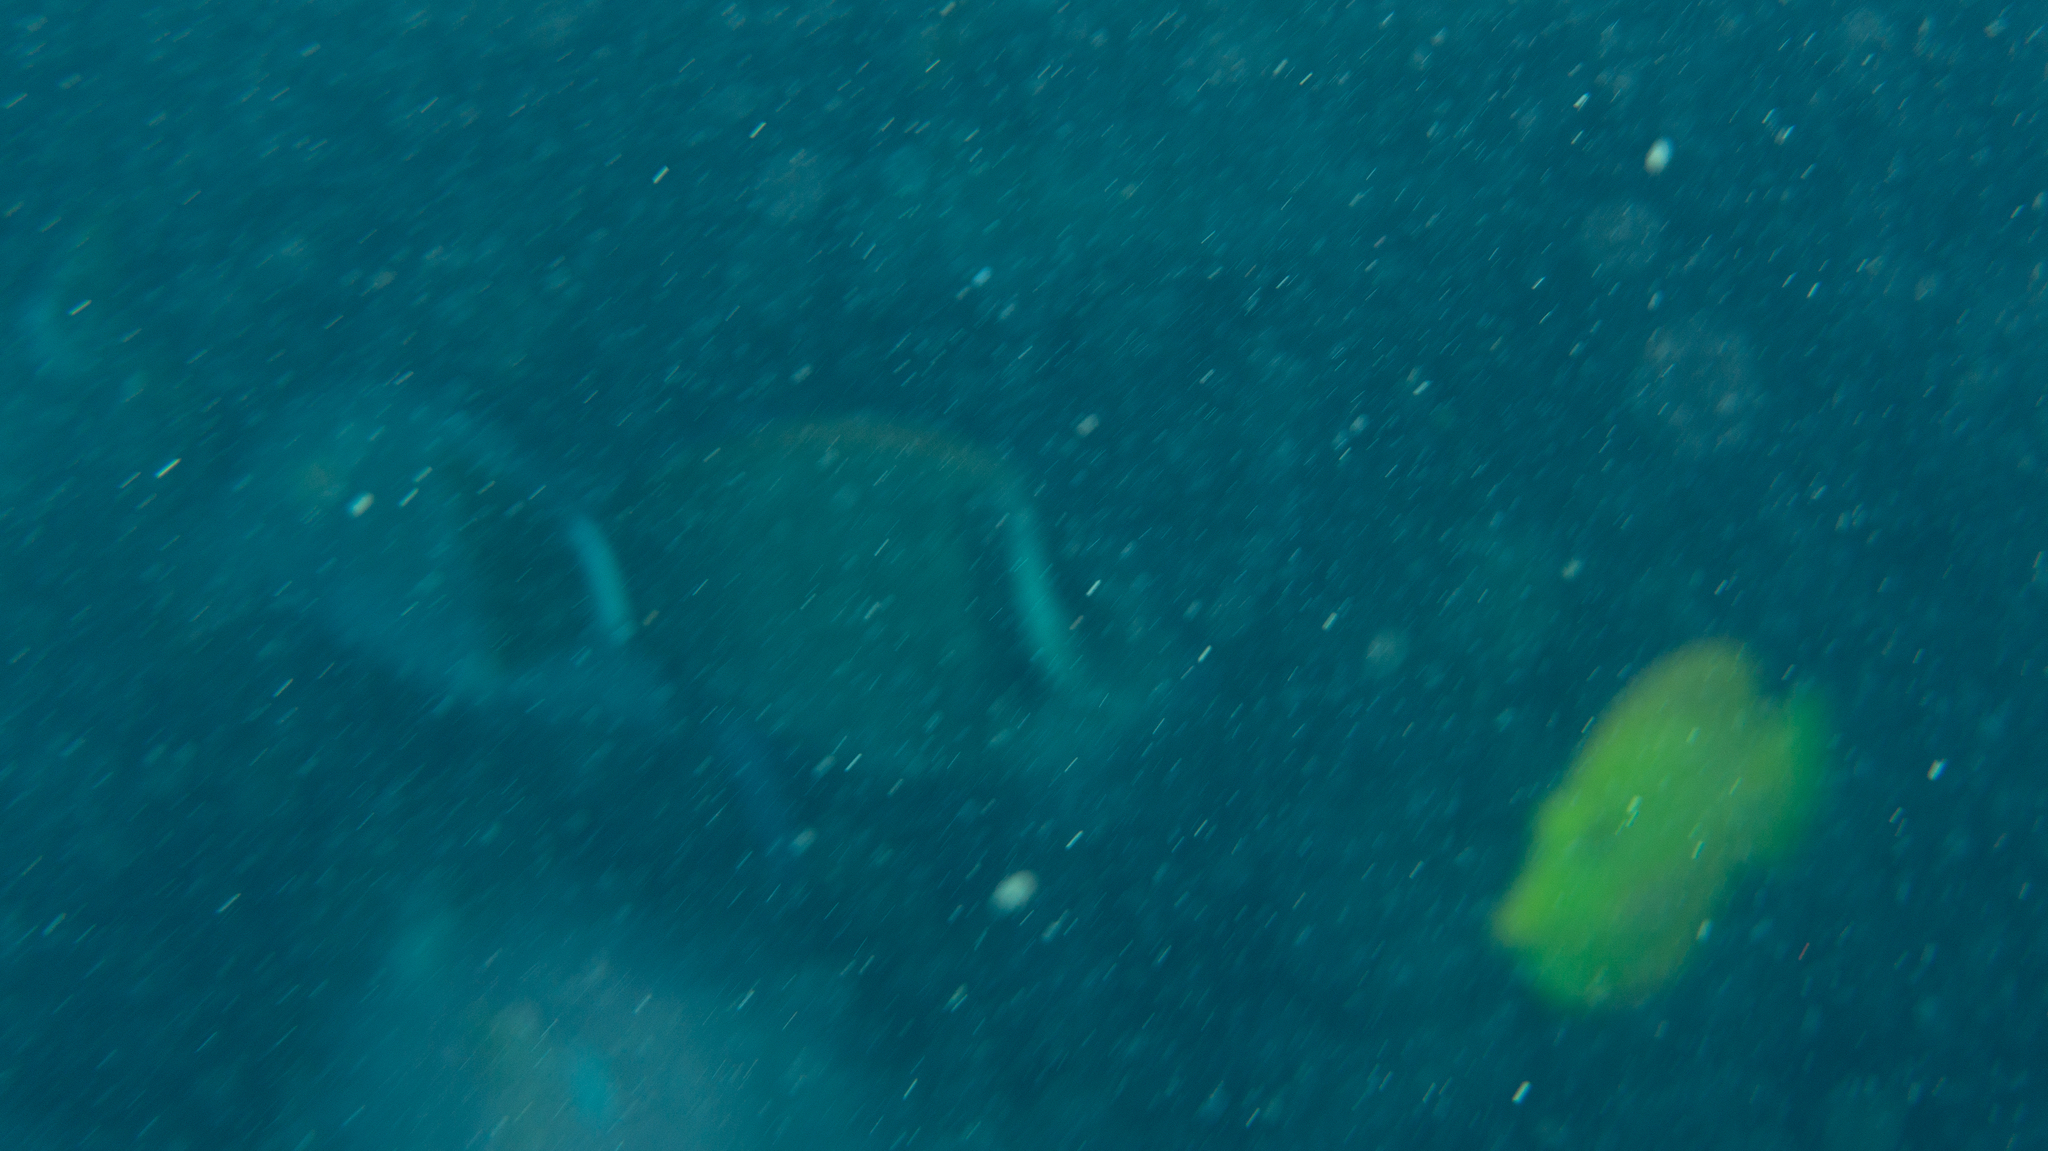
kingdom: Animalia
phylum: Chordata
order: Perciformes
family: Acanthuridae
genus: Acanthurus
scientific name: Acanthurus leucopareius
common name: Head-band surgeonfish
